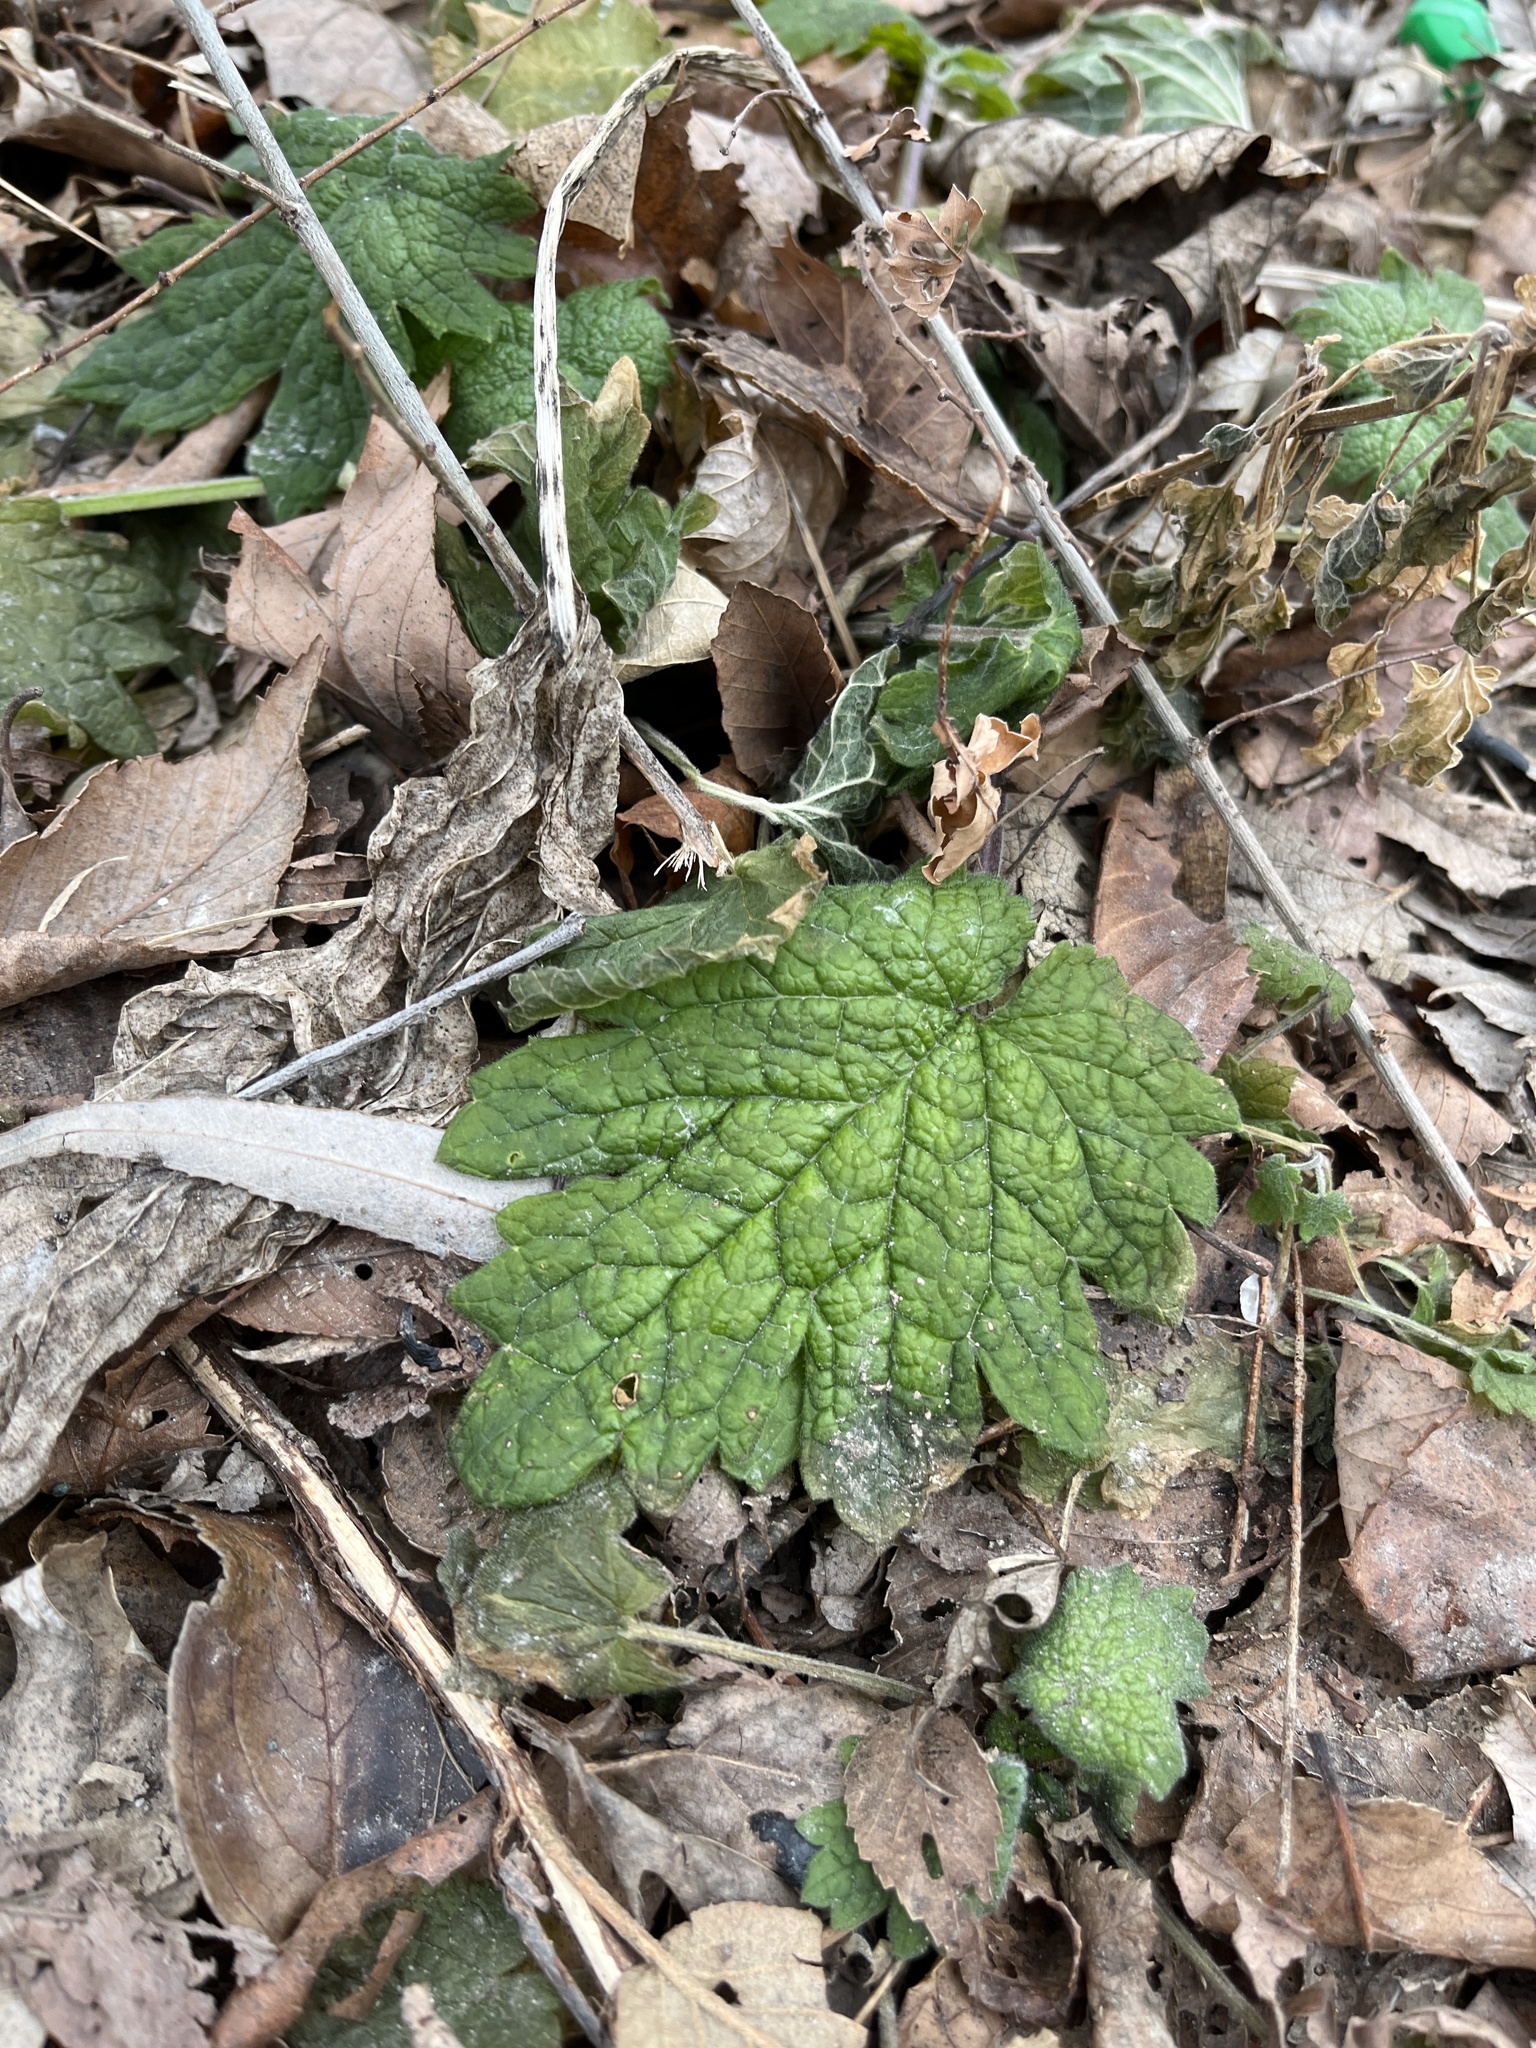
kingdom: Plantae
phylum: Tracheophyta
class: Magnoliopsida
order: Lamiales
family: Lamiaceae
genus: Leonurus
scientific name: Leonurus cardiaca
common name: Motherwort
